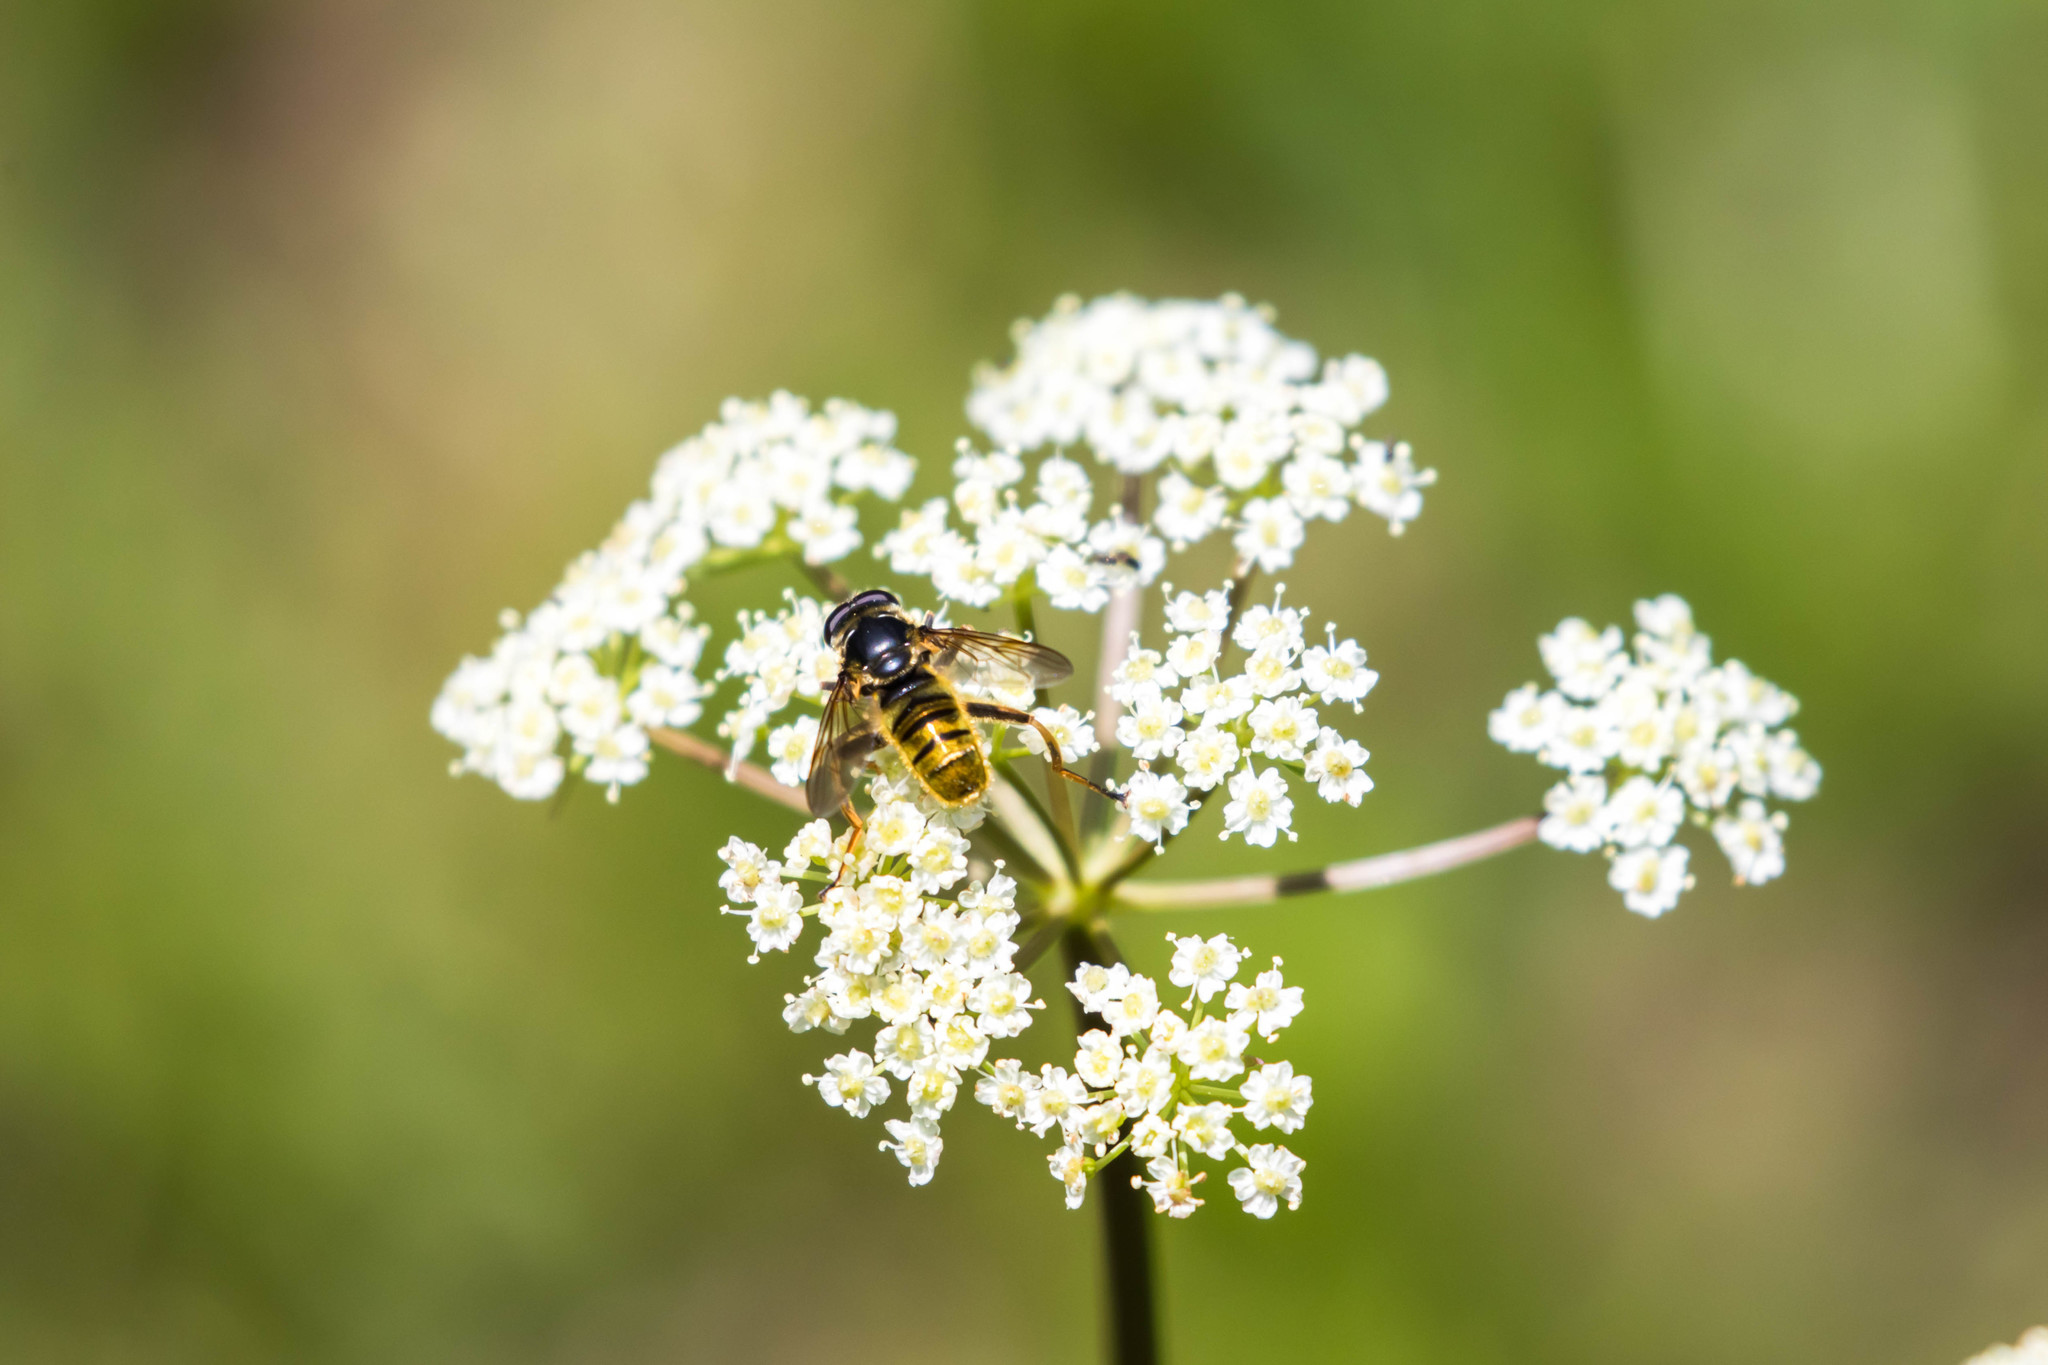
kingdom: Animalia
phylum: Arthropoda
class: Insecta
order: Diptera
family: Syrphidae
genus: Hadromyia
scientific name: Hadromyia pulchra
